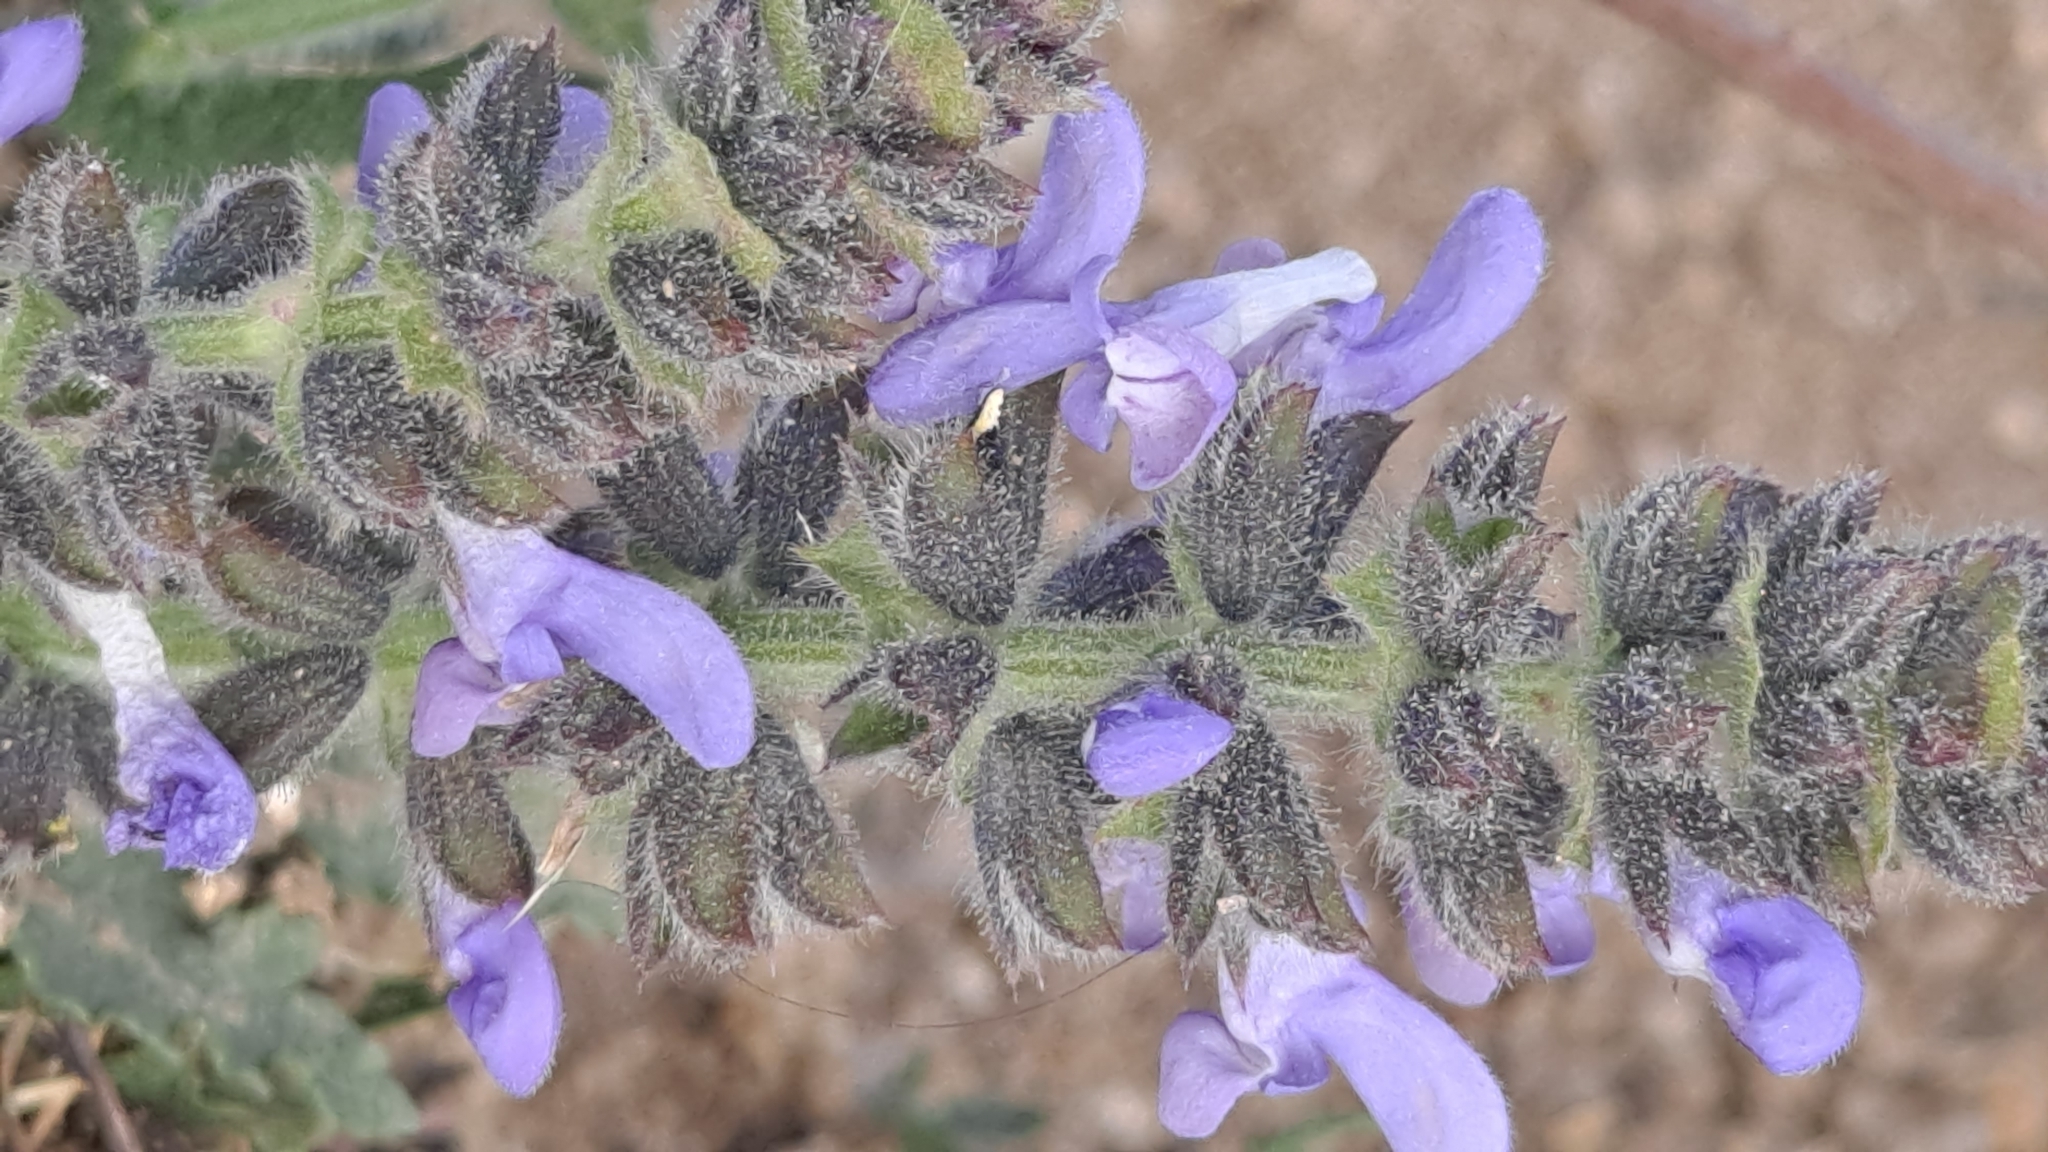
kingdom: Plantae
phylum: Tracheophyta
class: Magnoliopsida
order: Lamiales
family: Lamiaceae
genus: Salvia
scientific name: Salvia verbenaca
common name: Wild clary
